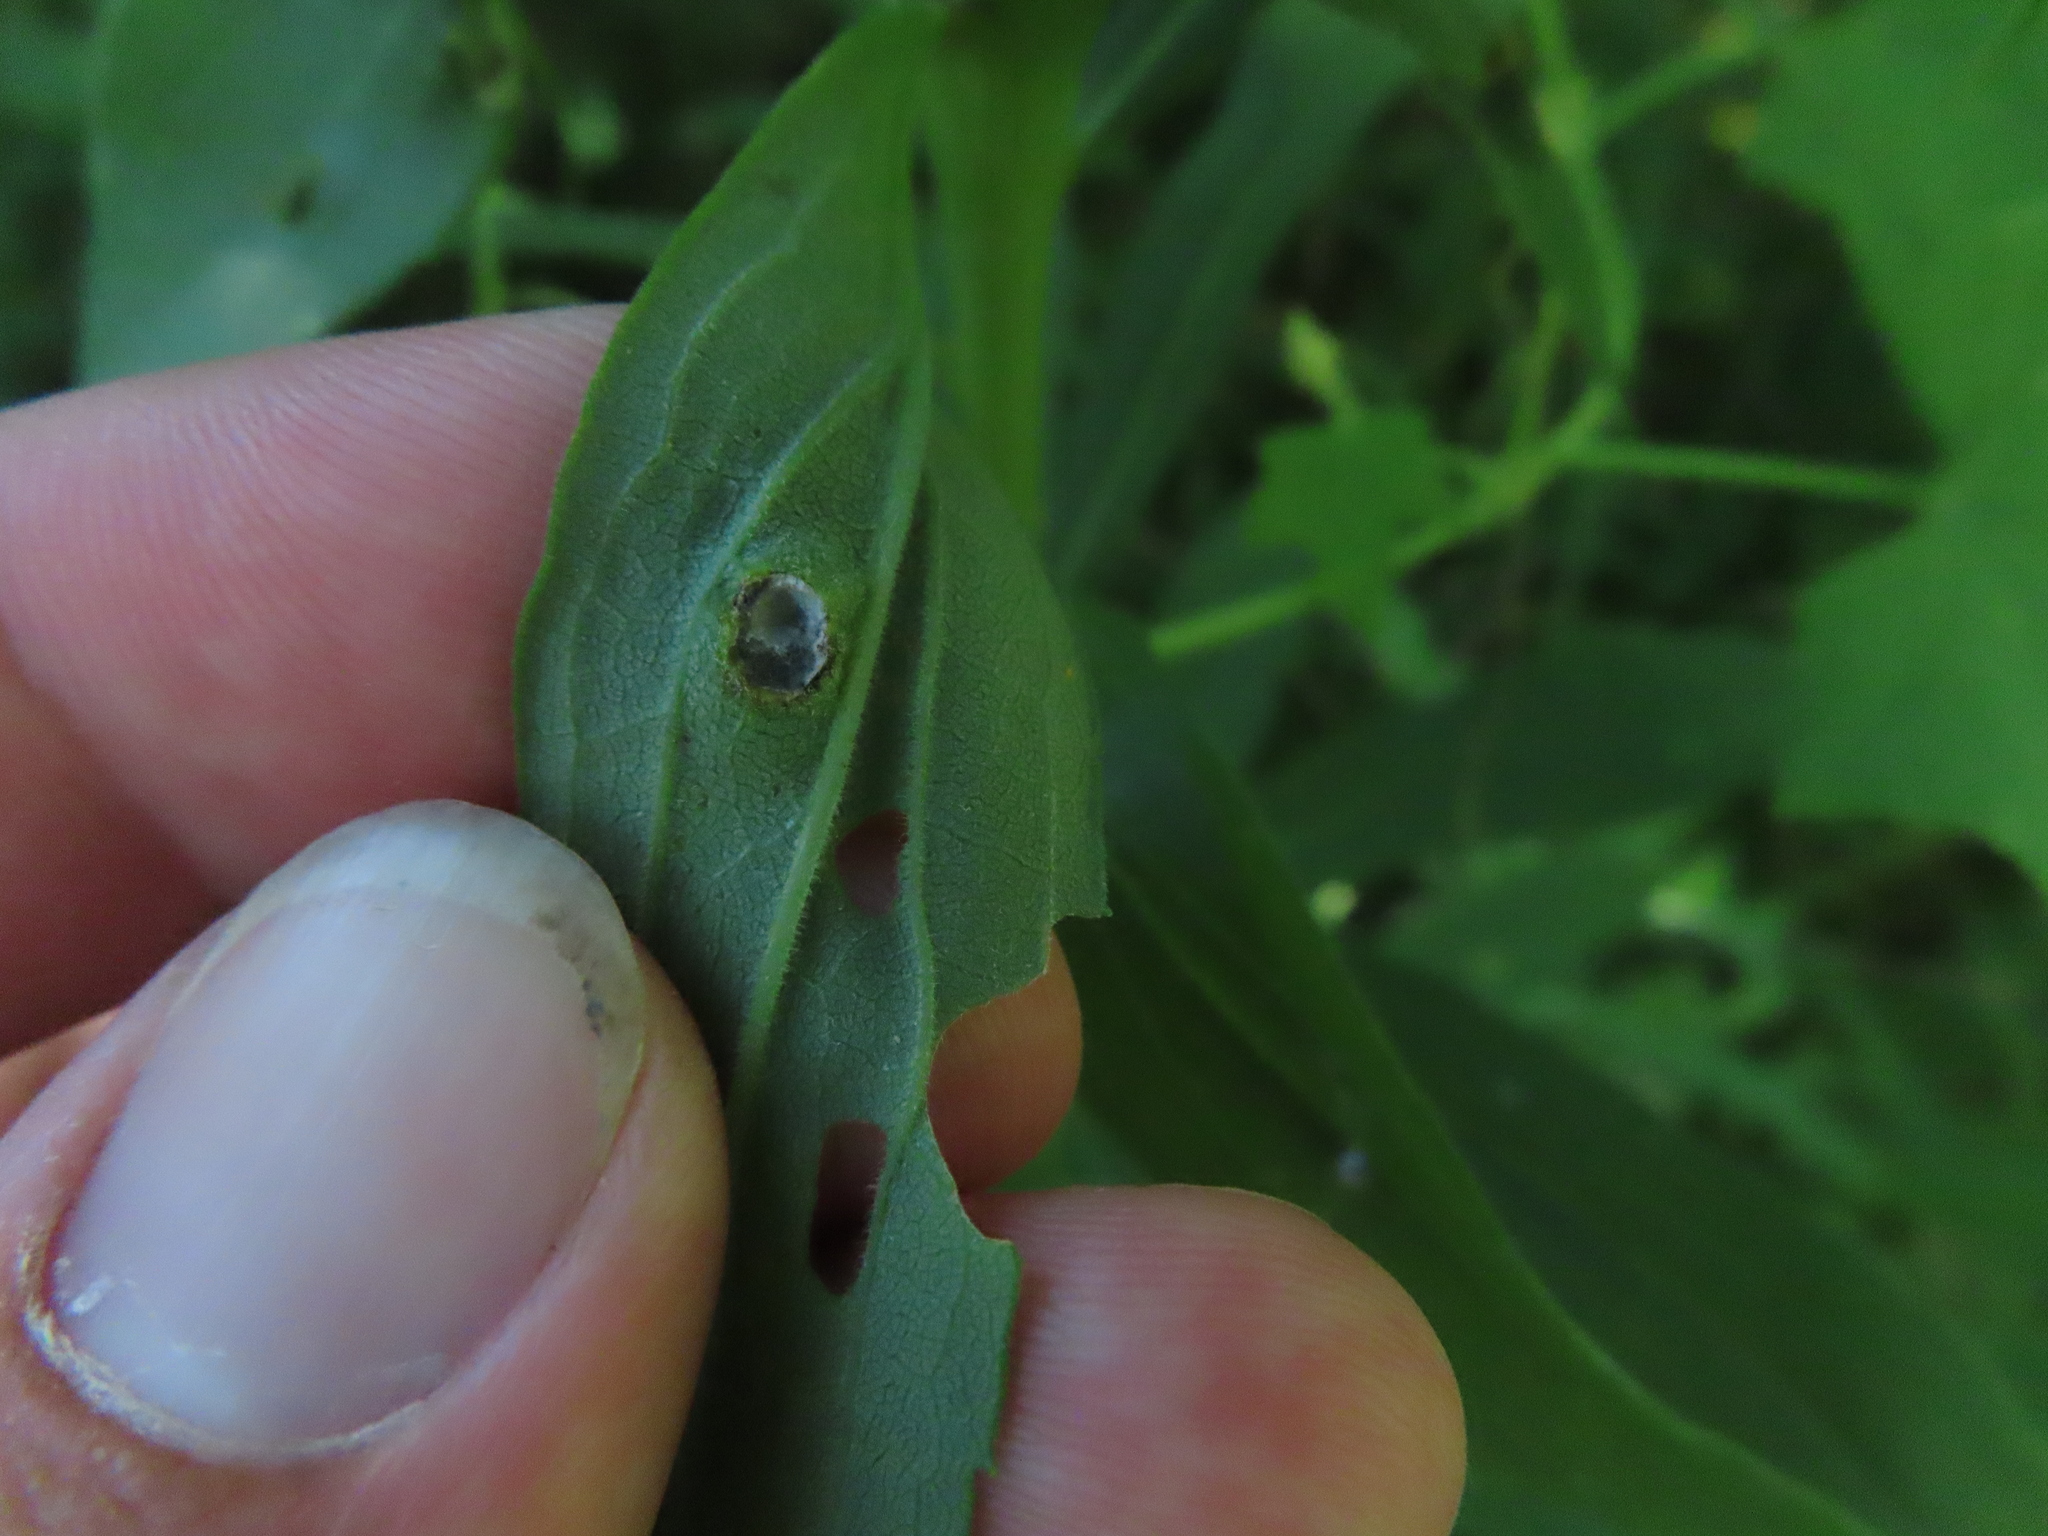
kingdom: Animalia
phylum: Arthropoda
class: Insecta
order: Diptera
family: Cecidomyiidae
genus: Asphondylia
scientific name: Asphondylia solidaginis
